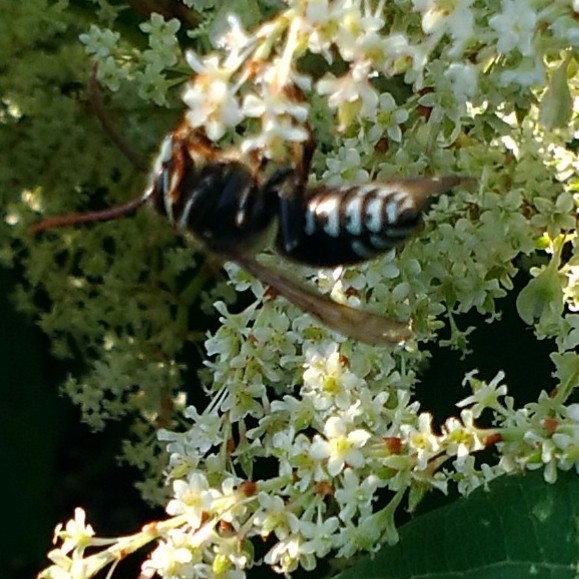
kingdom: Animalia
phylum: Arthropoda
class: Insecta
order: Hymenoptera
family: Vespidae
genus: Dolichovespula
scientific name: Dolichovespula maculata
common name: Bald-faced hornet
